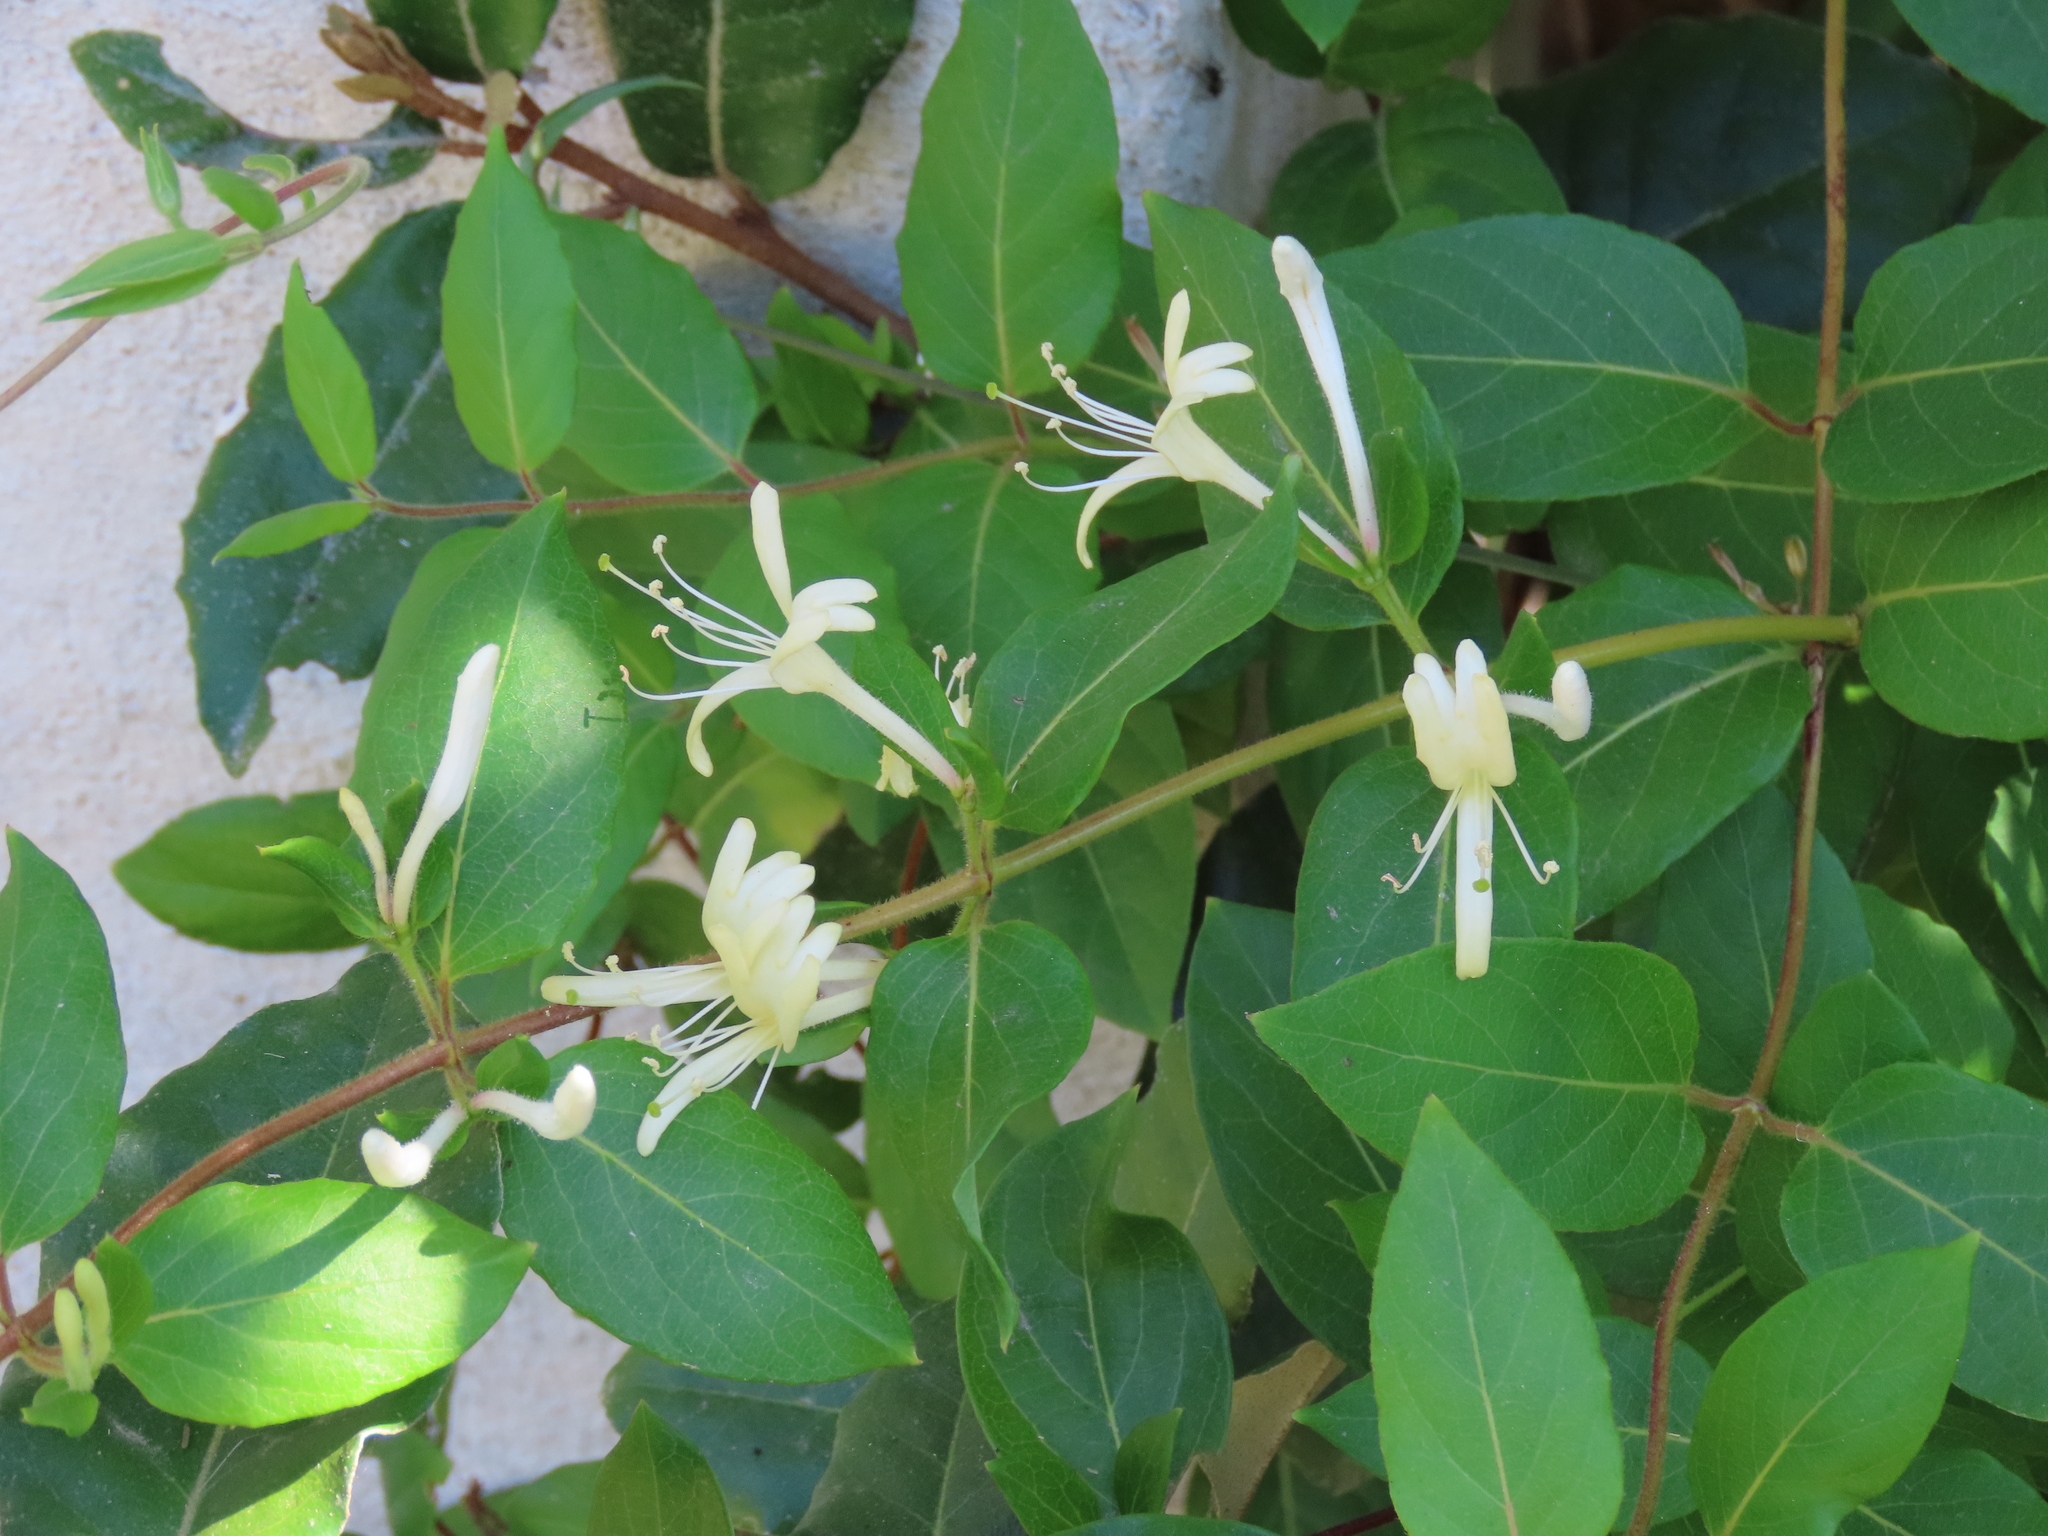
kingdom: Plantae
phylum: Tracheophyta
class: Magnoliopsida
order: Dipsacales
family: Caprifoliaceae
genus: Lonicera
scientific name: Lonicera japonica
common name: Japanese honeysuckle
